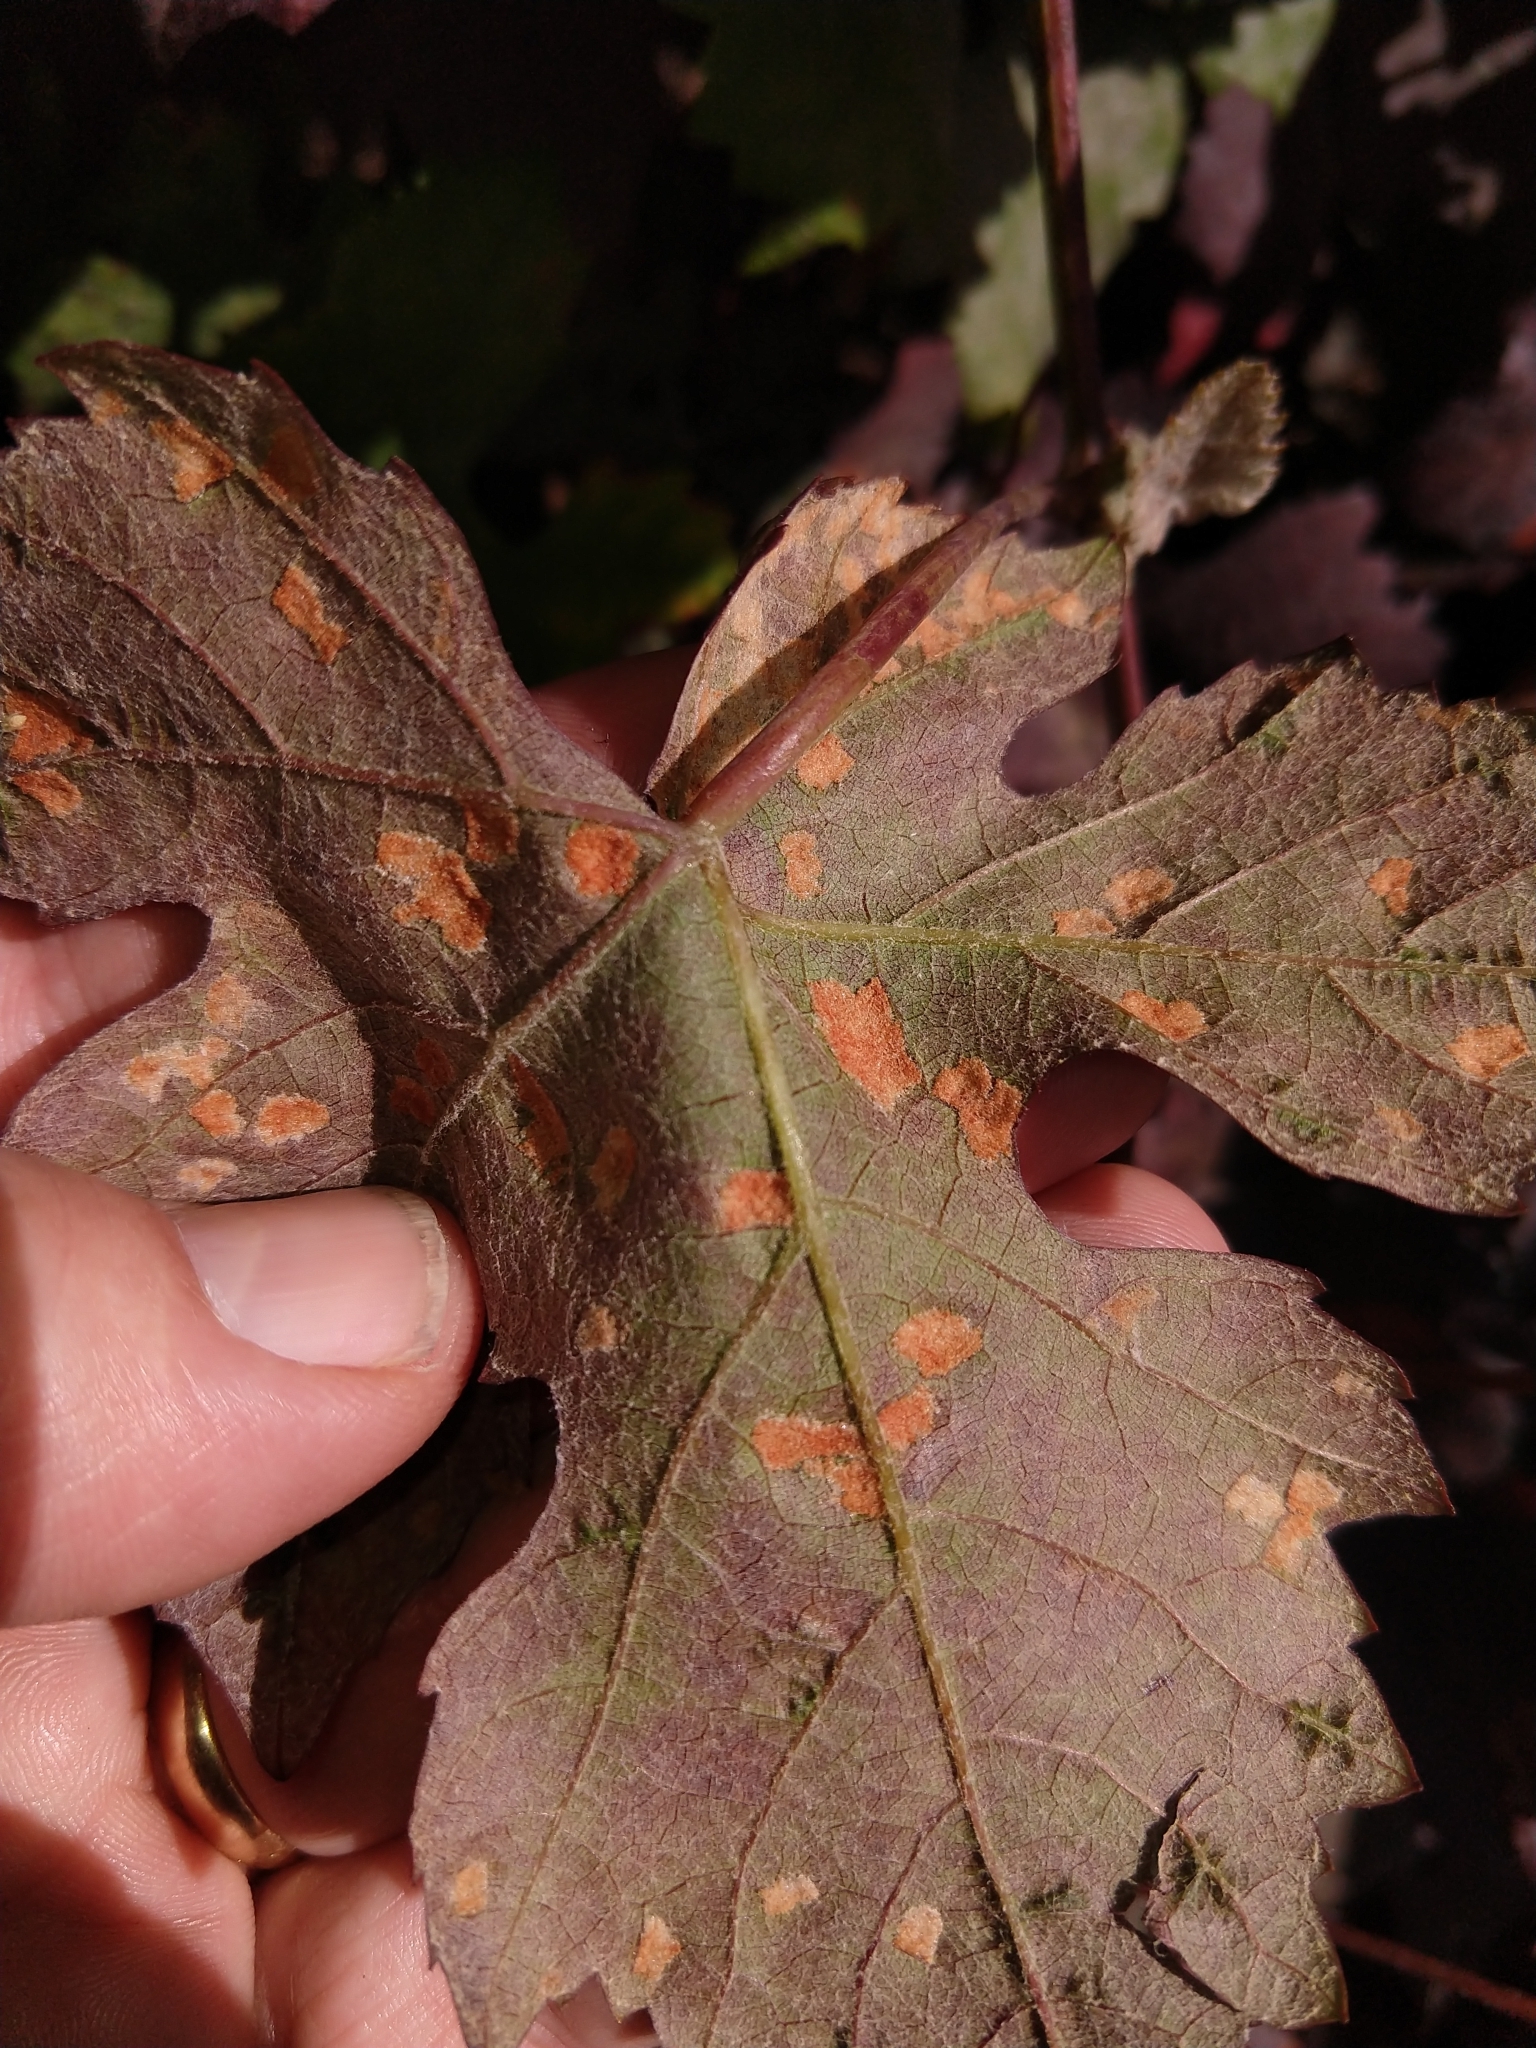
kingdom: Animalia
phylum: Arthropoda
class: Arachnida
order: Trombidiformes
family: Eriophyidae
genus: Colomerus
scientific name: Colomerus vitis
